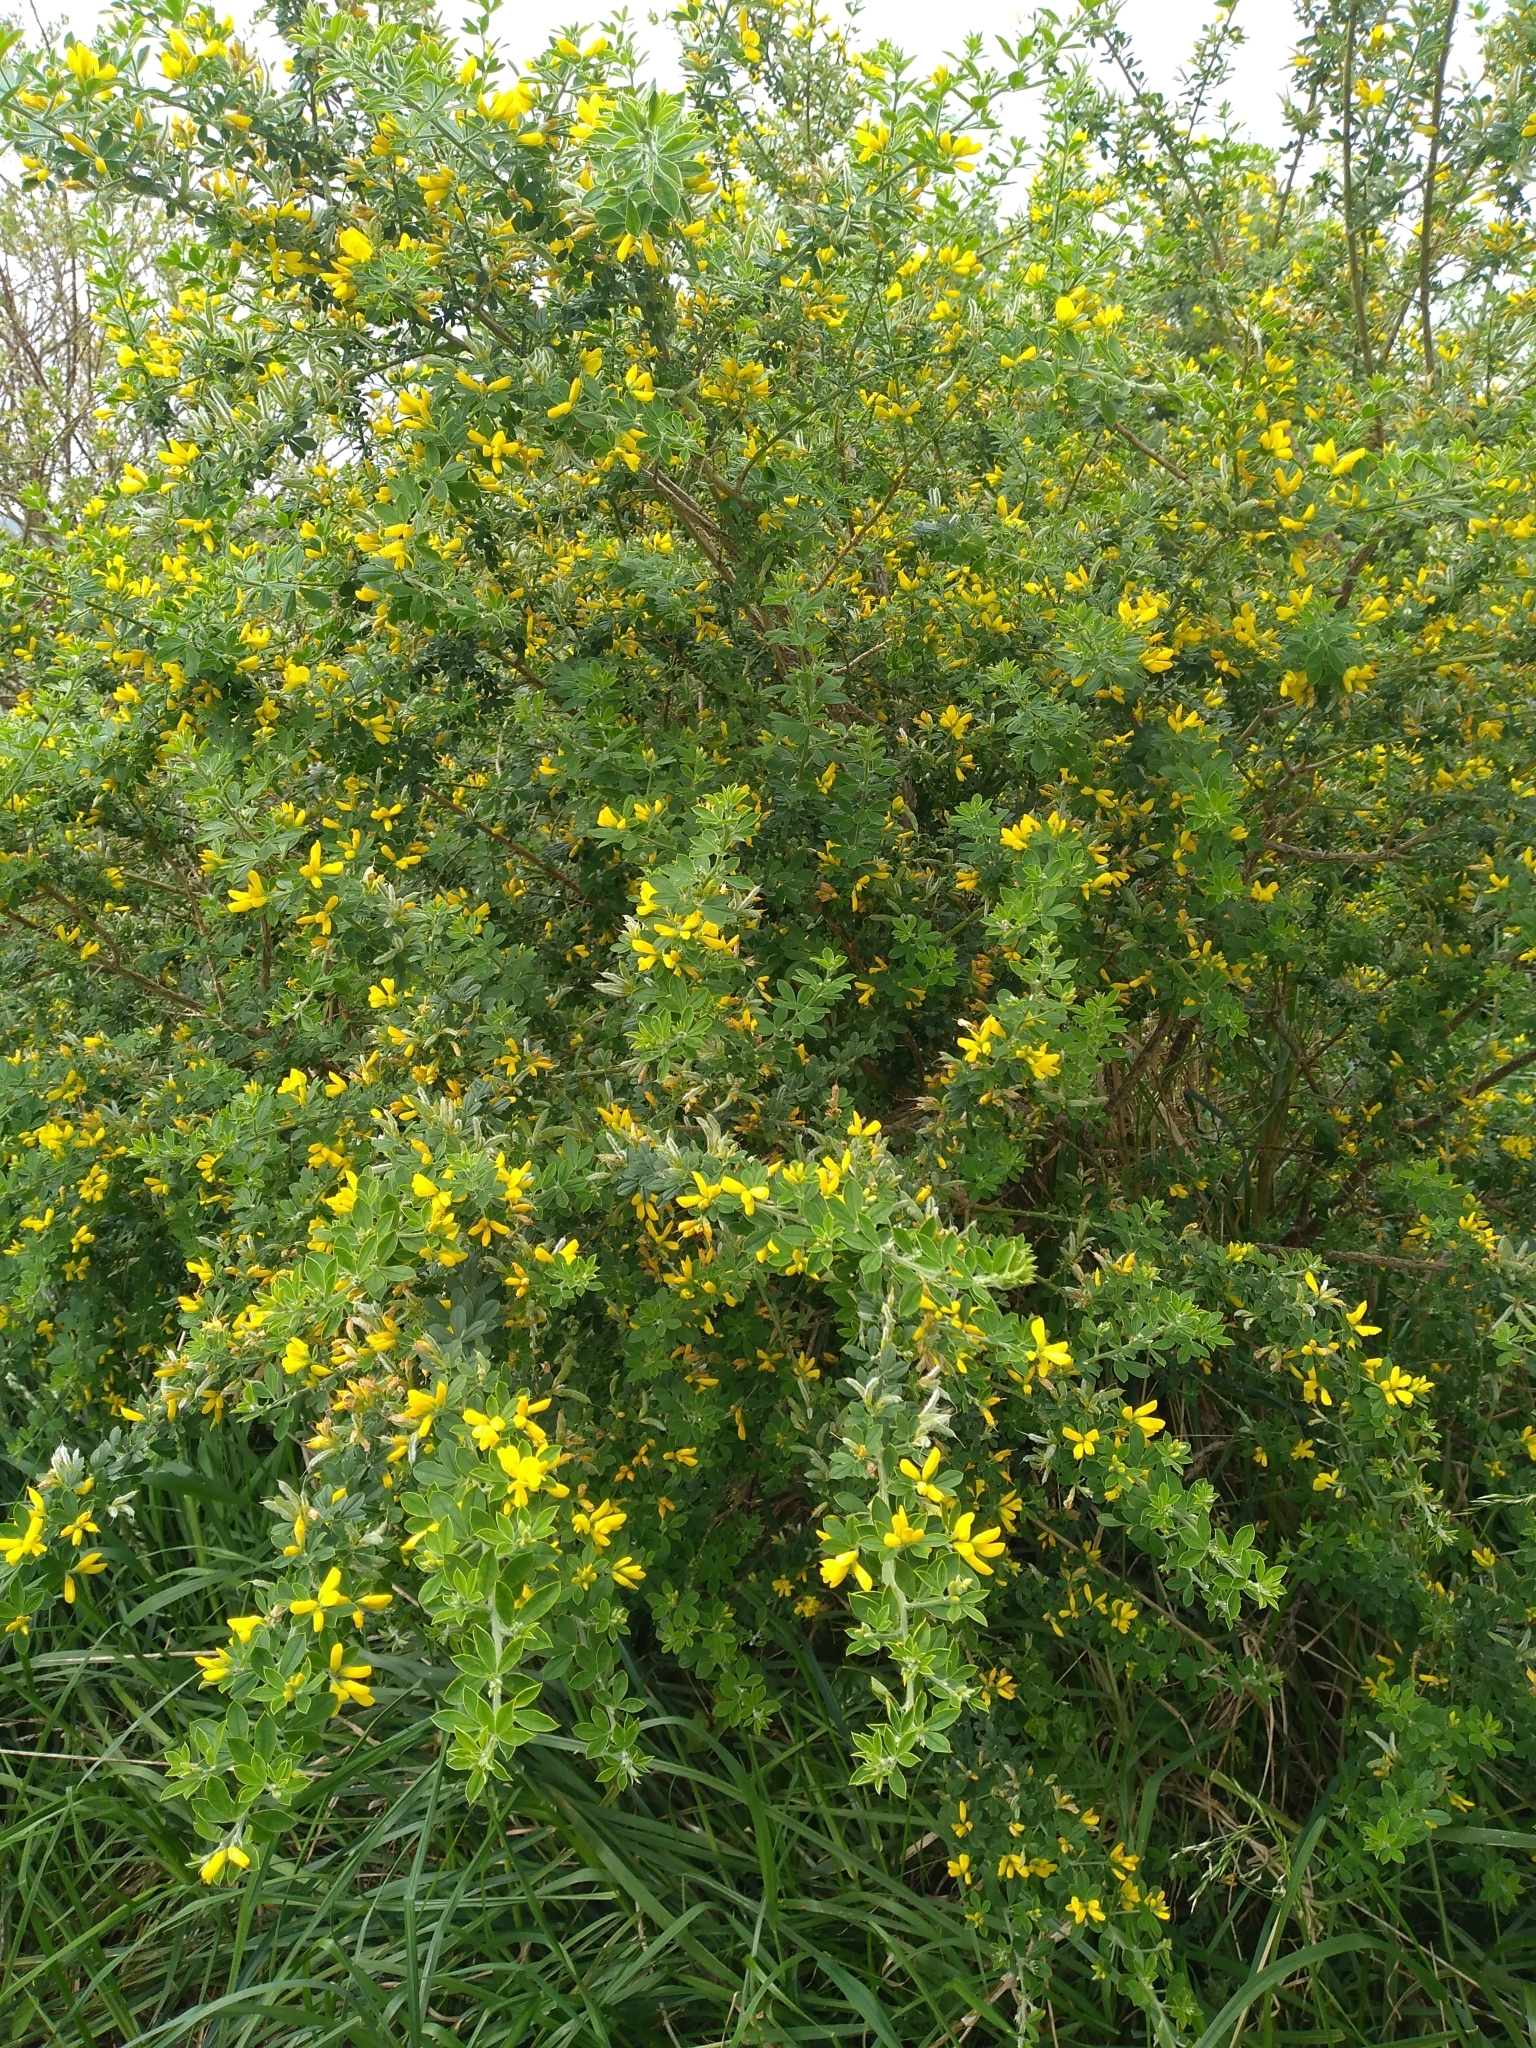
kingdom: Plantae
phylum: Tracheophyta
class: Magnoliopsida
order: Fabales
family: Fabaceae
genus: Genista
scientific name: Genista monspessulana
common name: Montpellier broom
